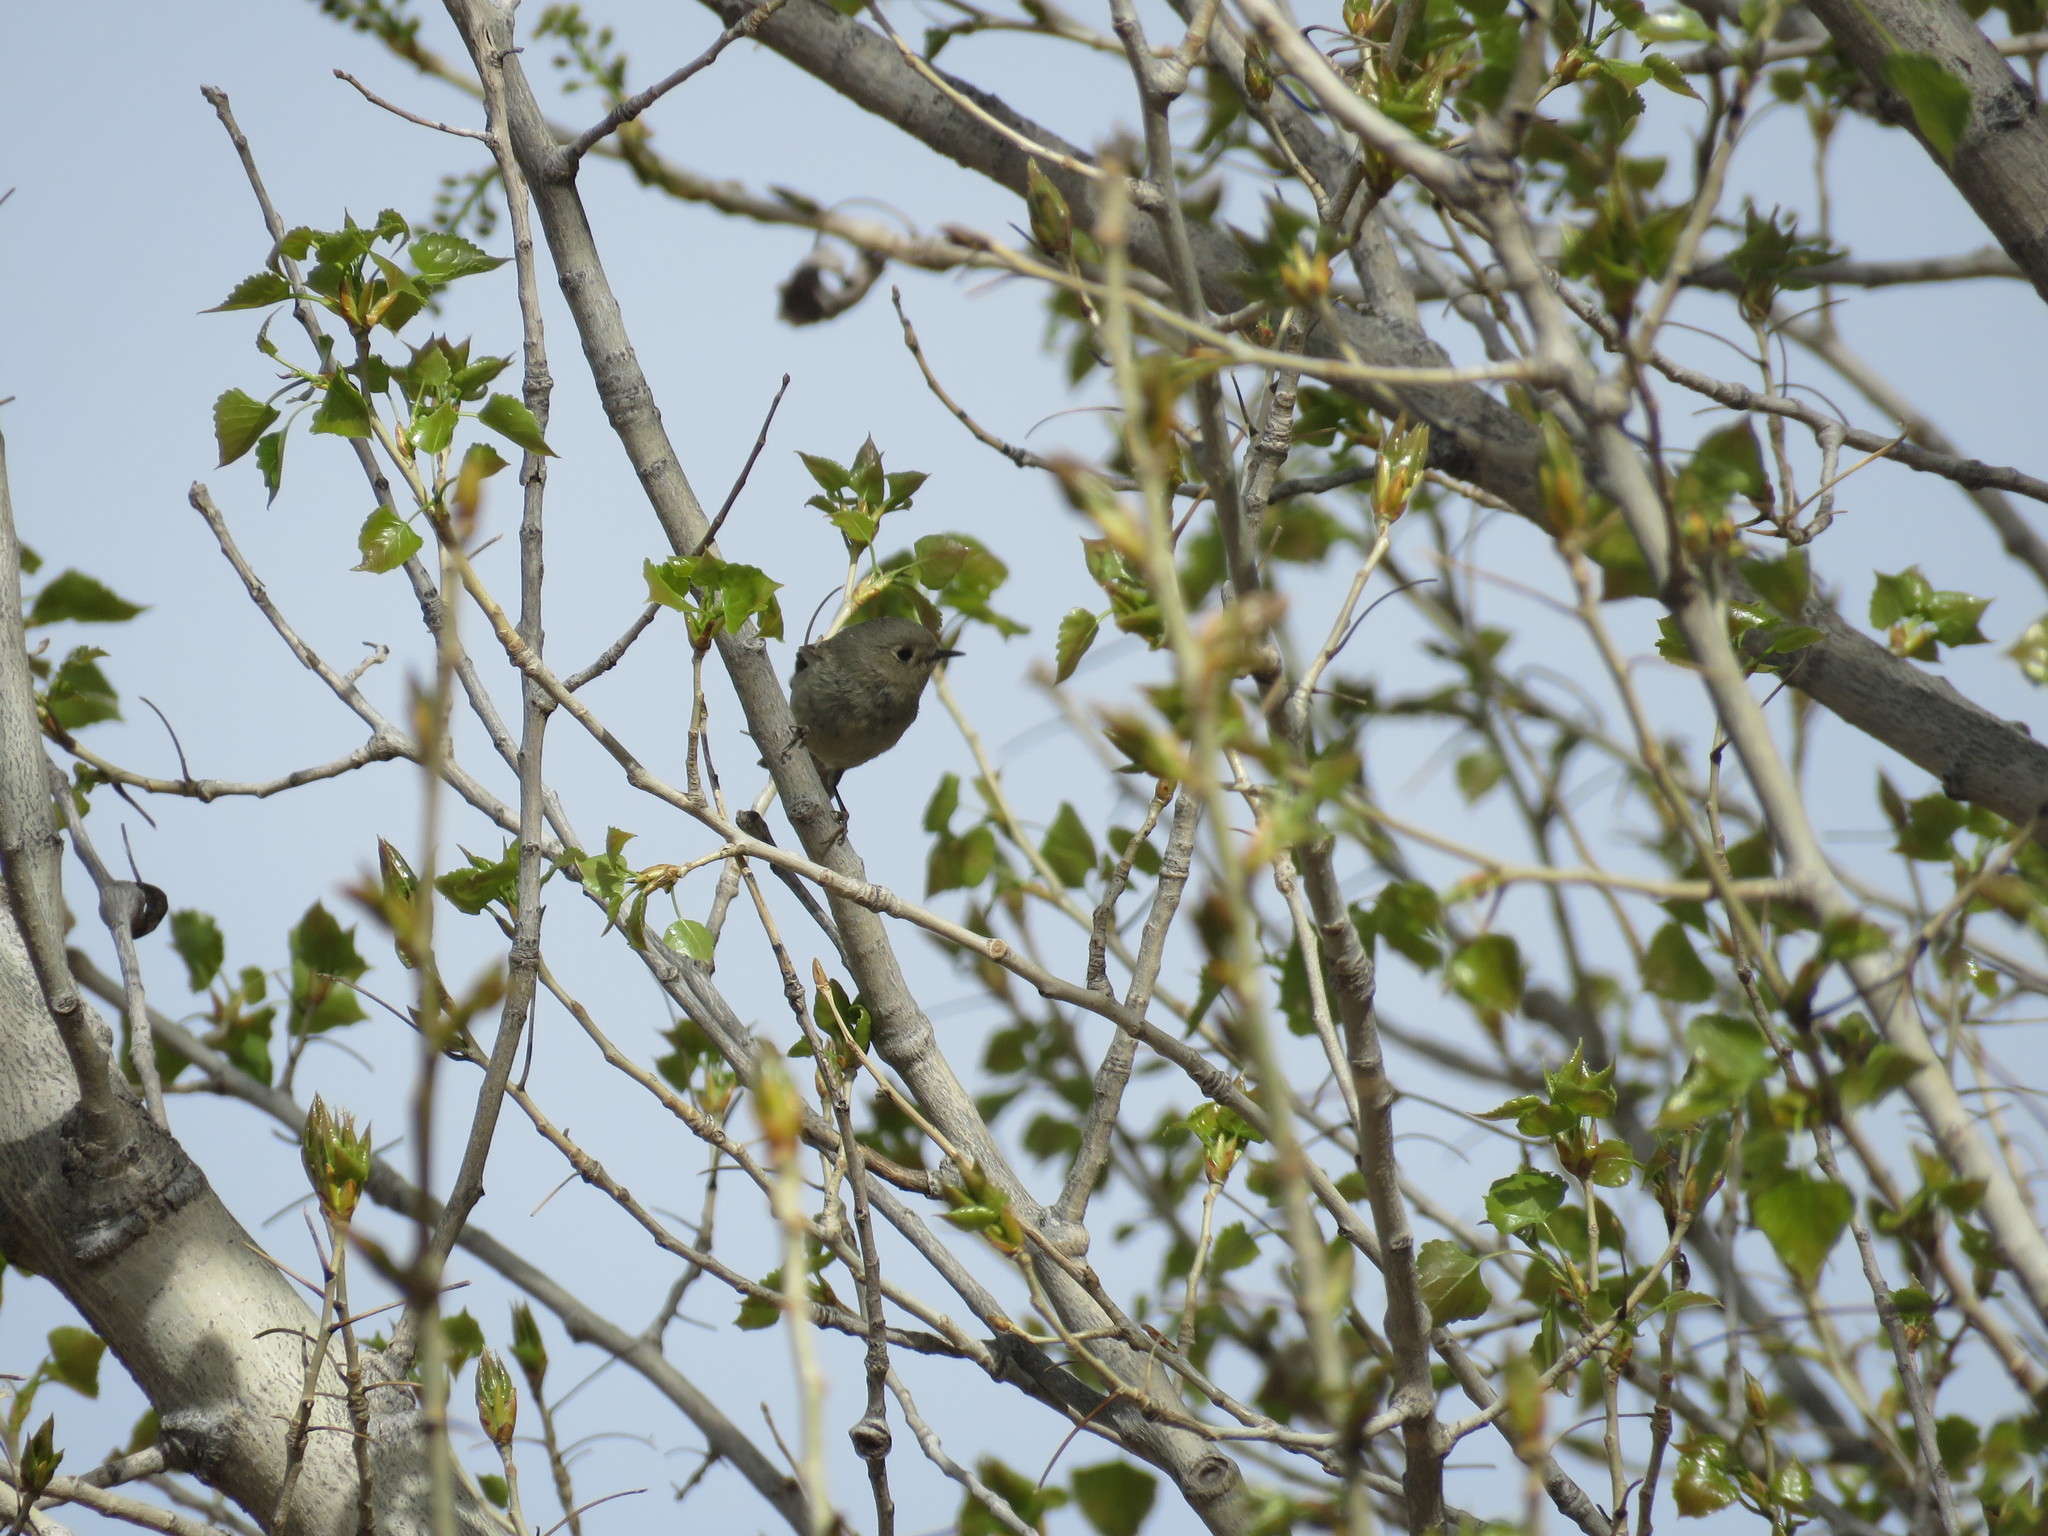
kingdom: Animalia
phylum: Chordata
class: Aves
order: Passeriformes
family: Regulidae
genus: Regulus
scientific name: Regulus calendula
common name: Ruby-crowned kinglet
